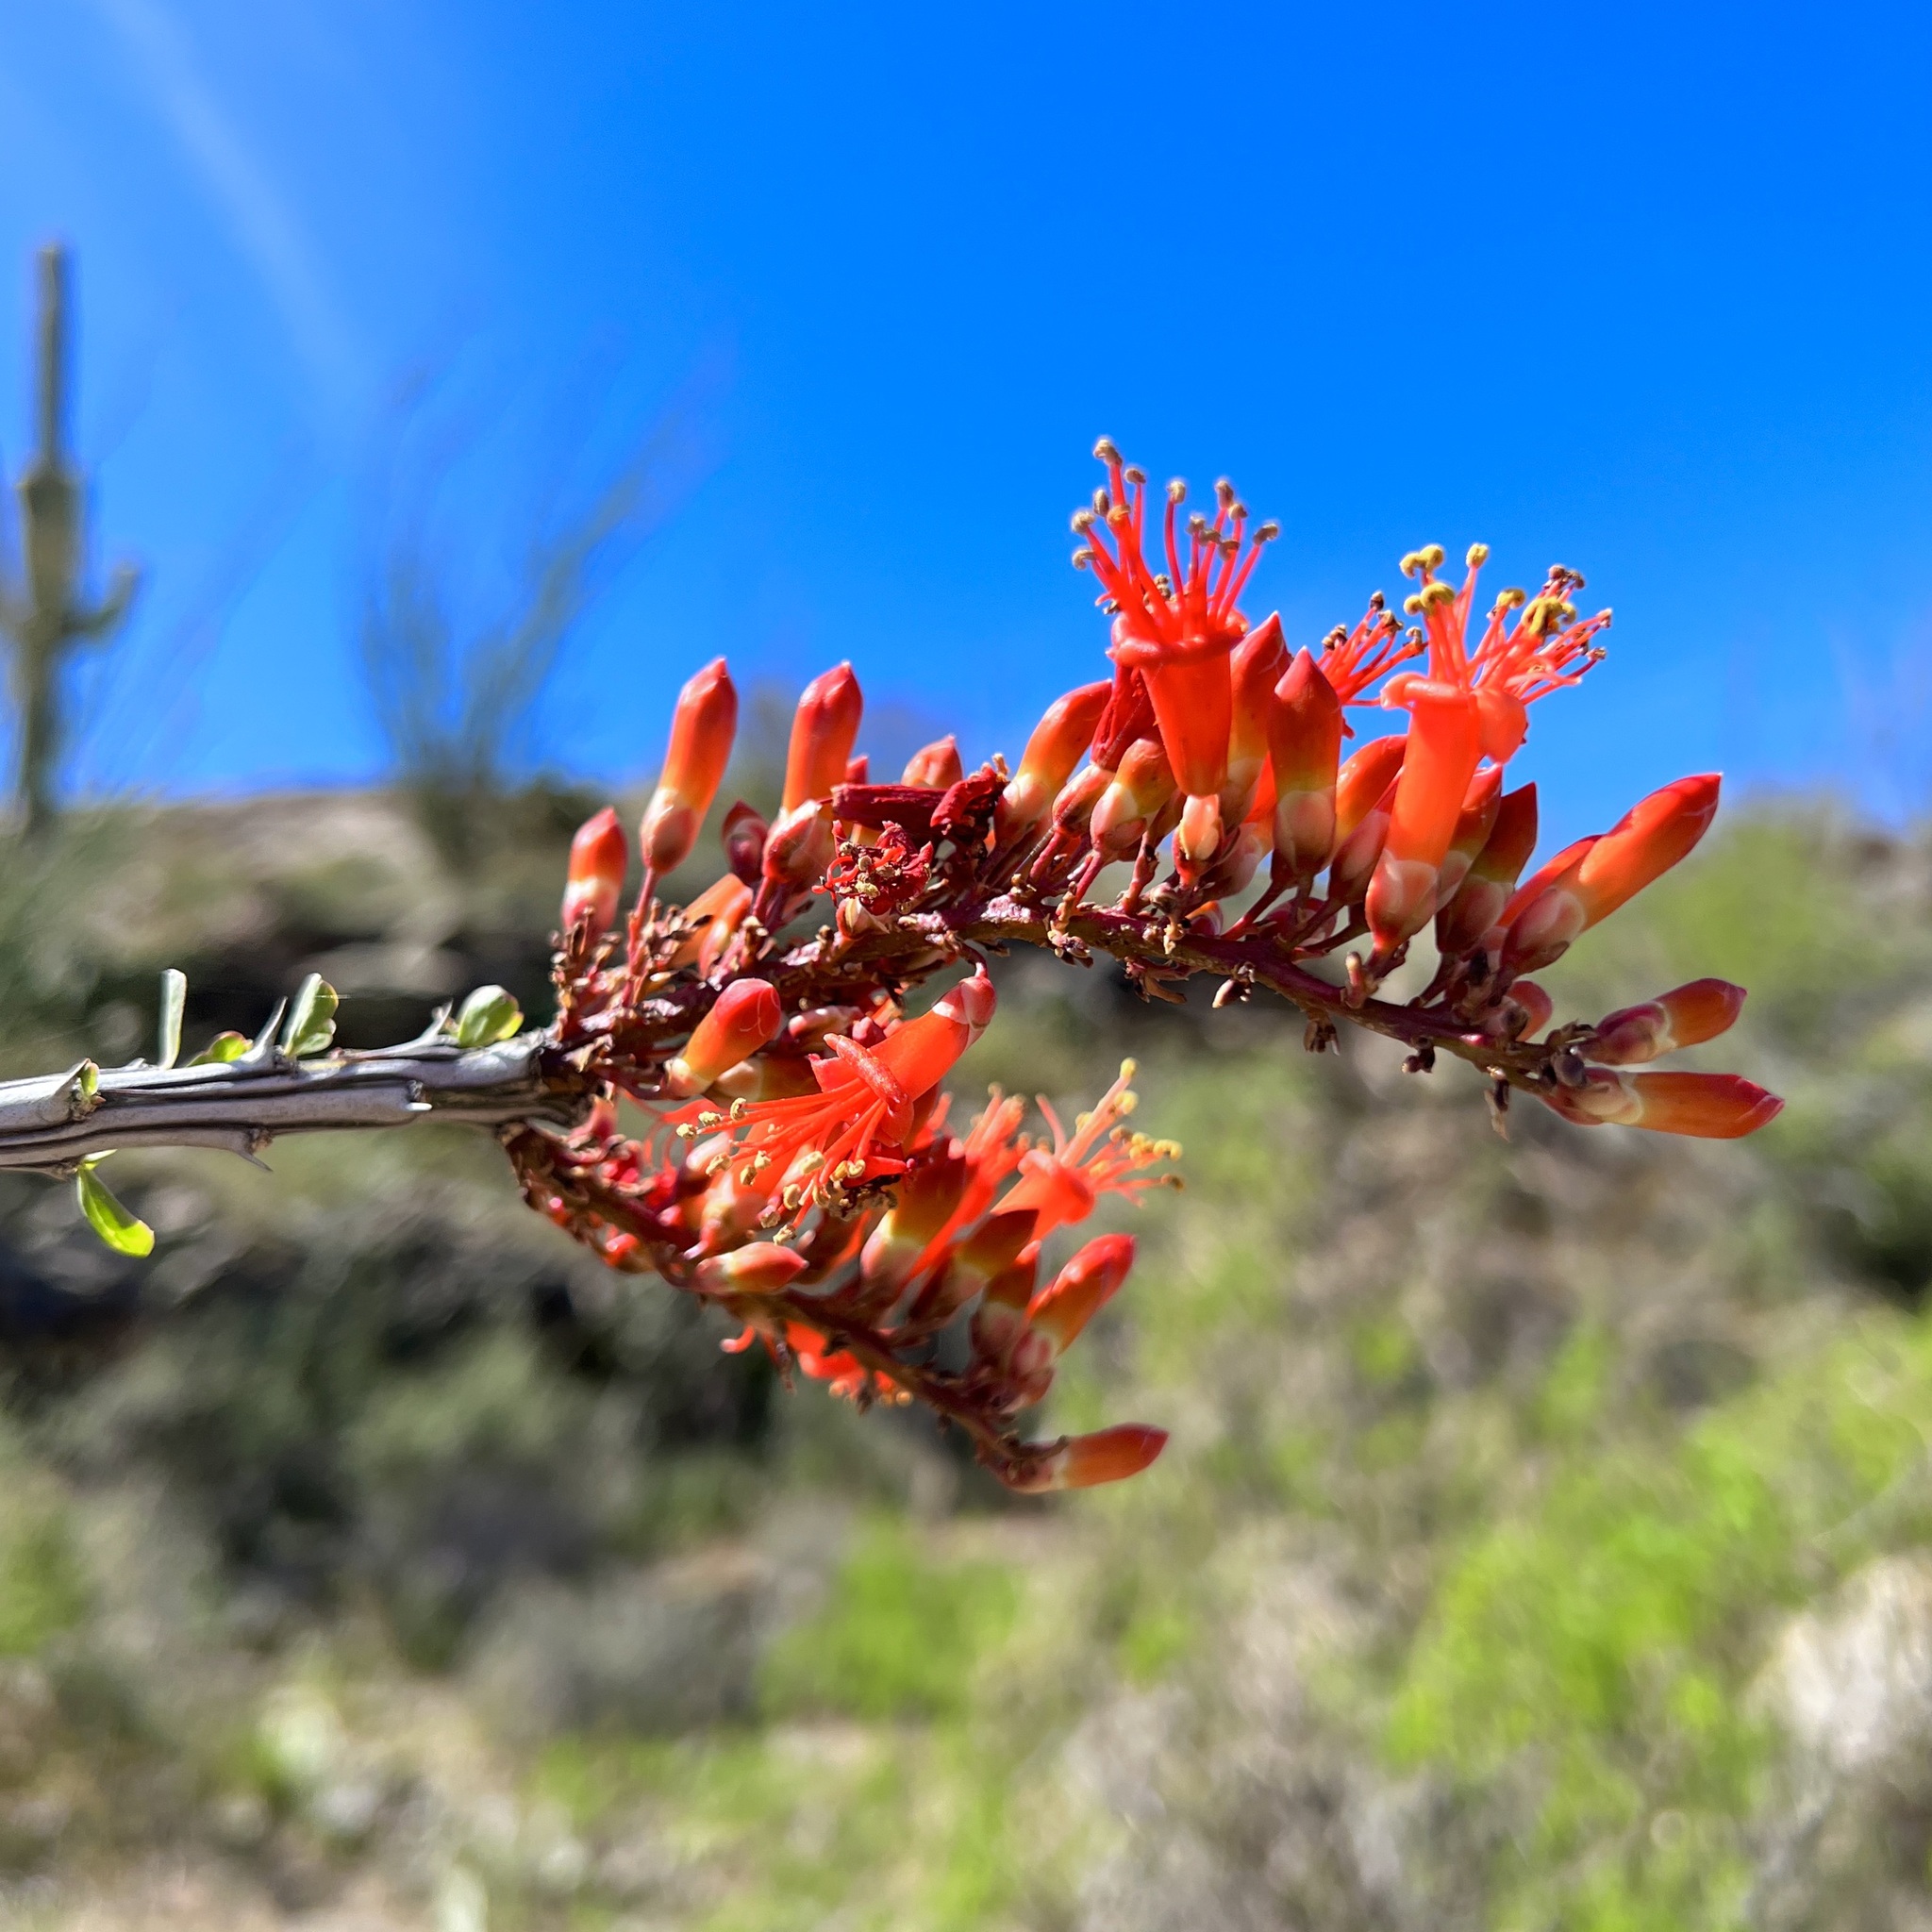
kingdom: Plantae
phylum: Tracheophyta
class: Magnoliopsida
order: Ericales
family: Fouquieriaceae
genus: Fouquieria
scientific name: Fouquieria splendens
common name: Vine-cactus
